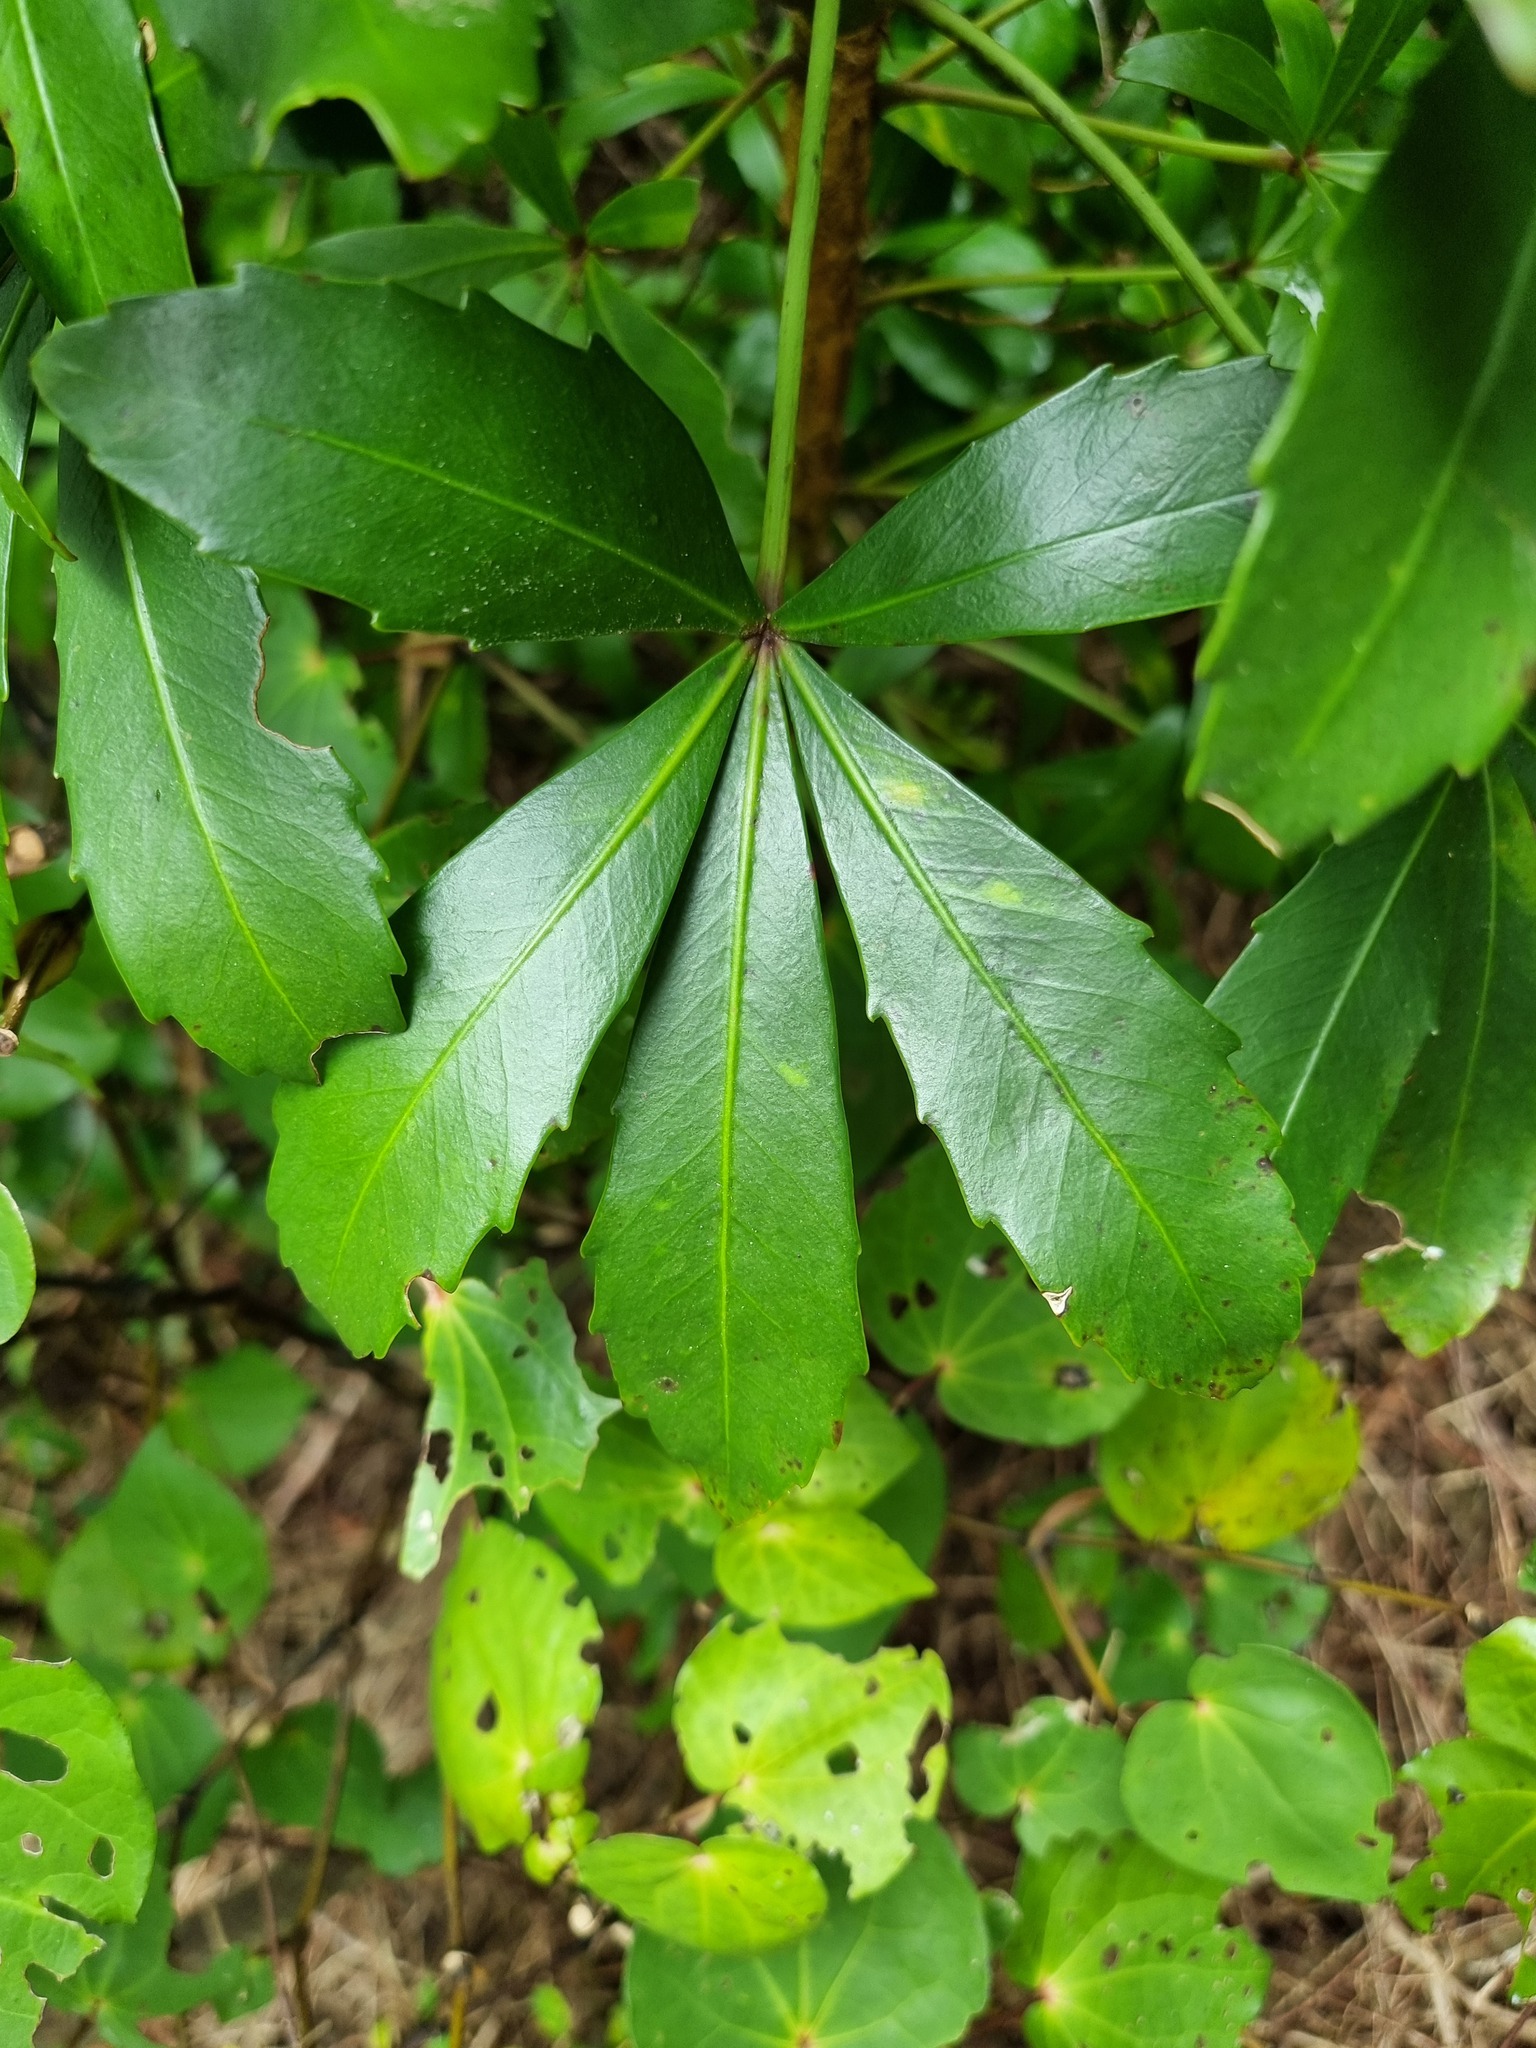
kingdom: Plantae
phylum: Tracheophyta
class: Magnoliopsida
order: Apiales
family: Araliaceae
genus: Pseudopanax
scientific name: Pseudopanax lessonii
